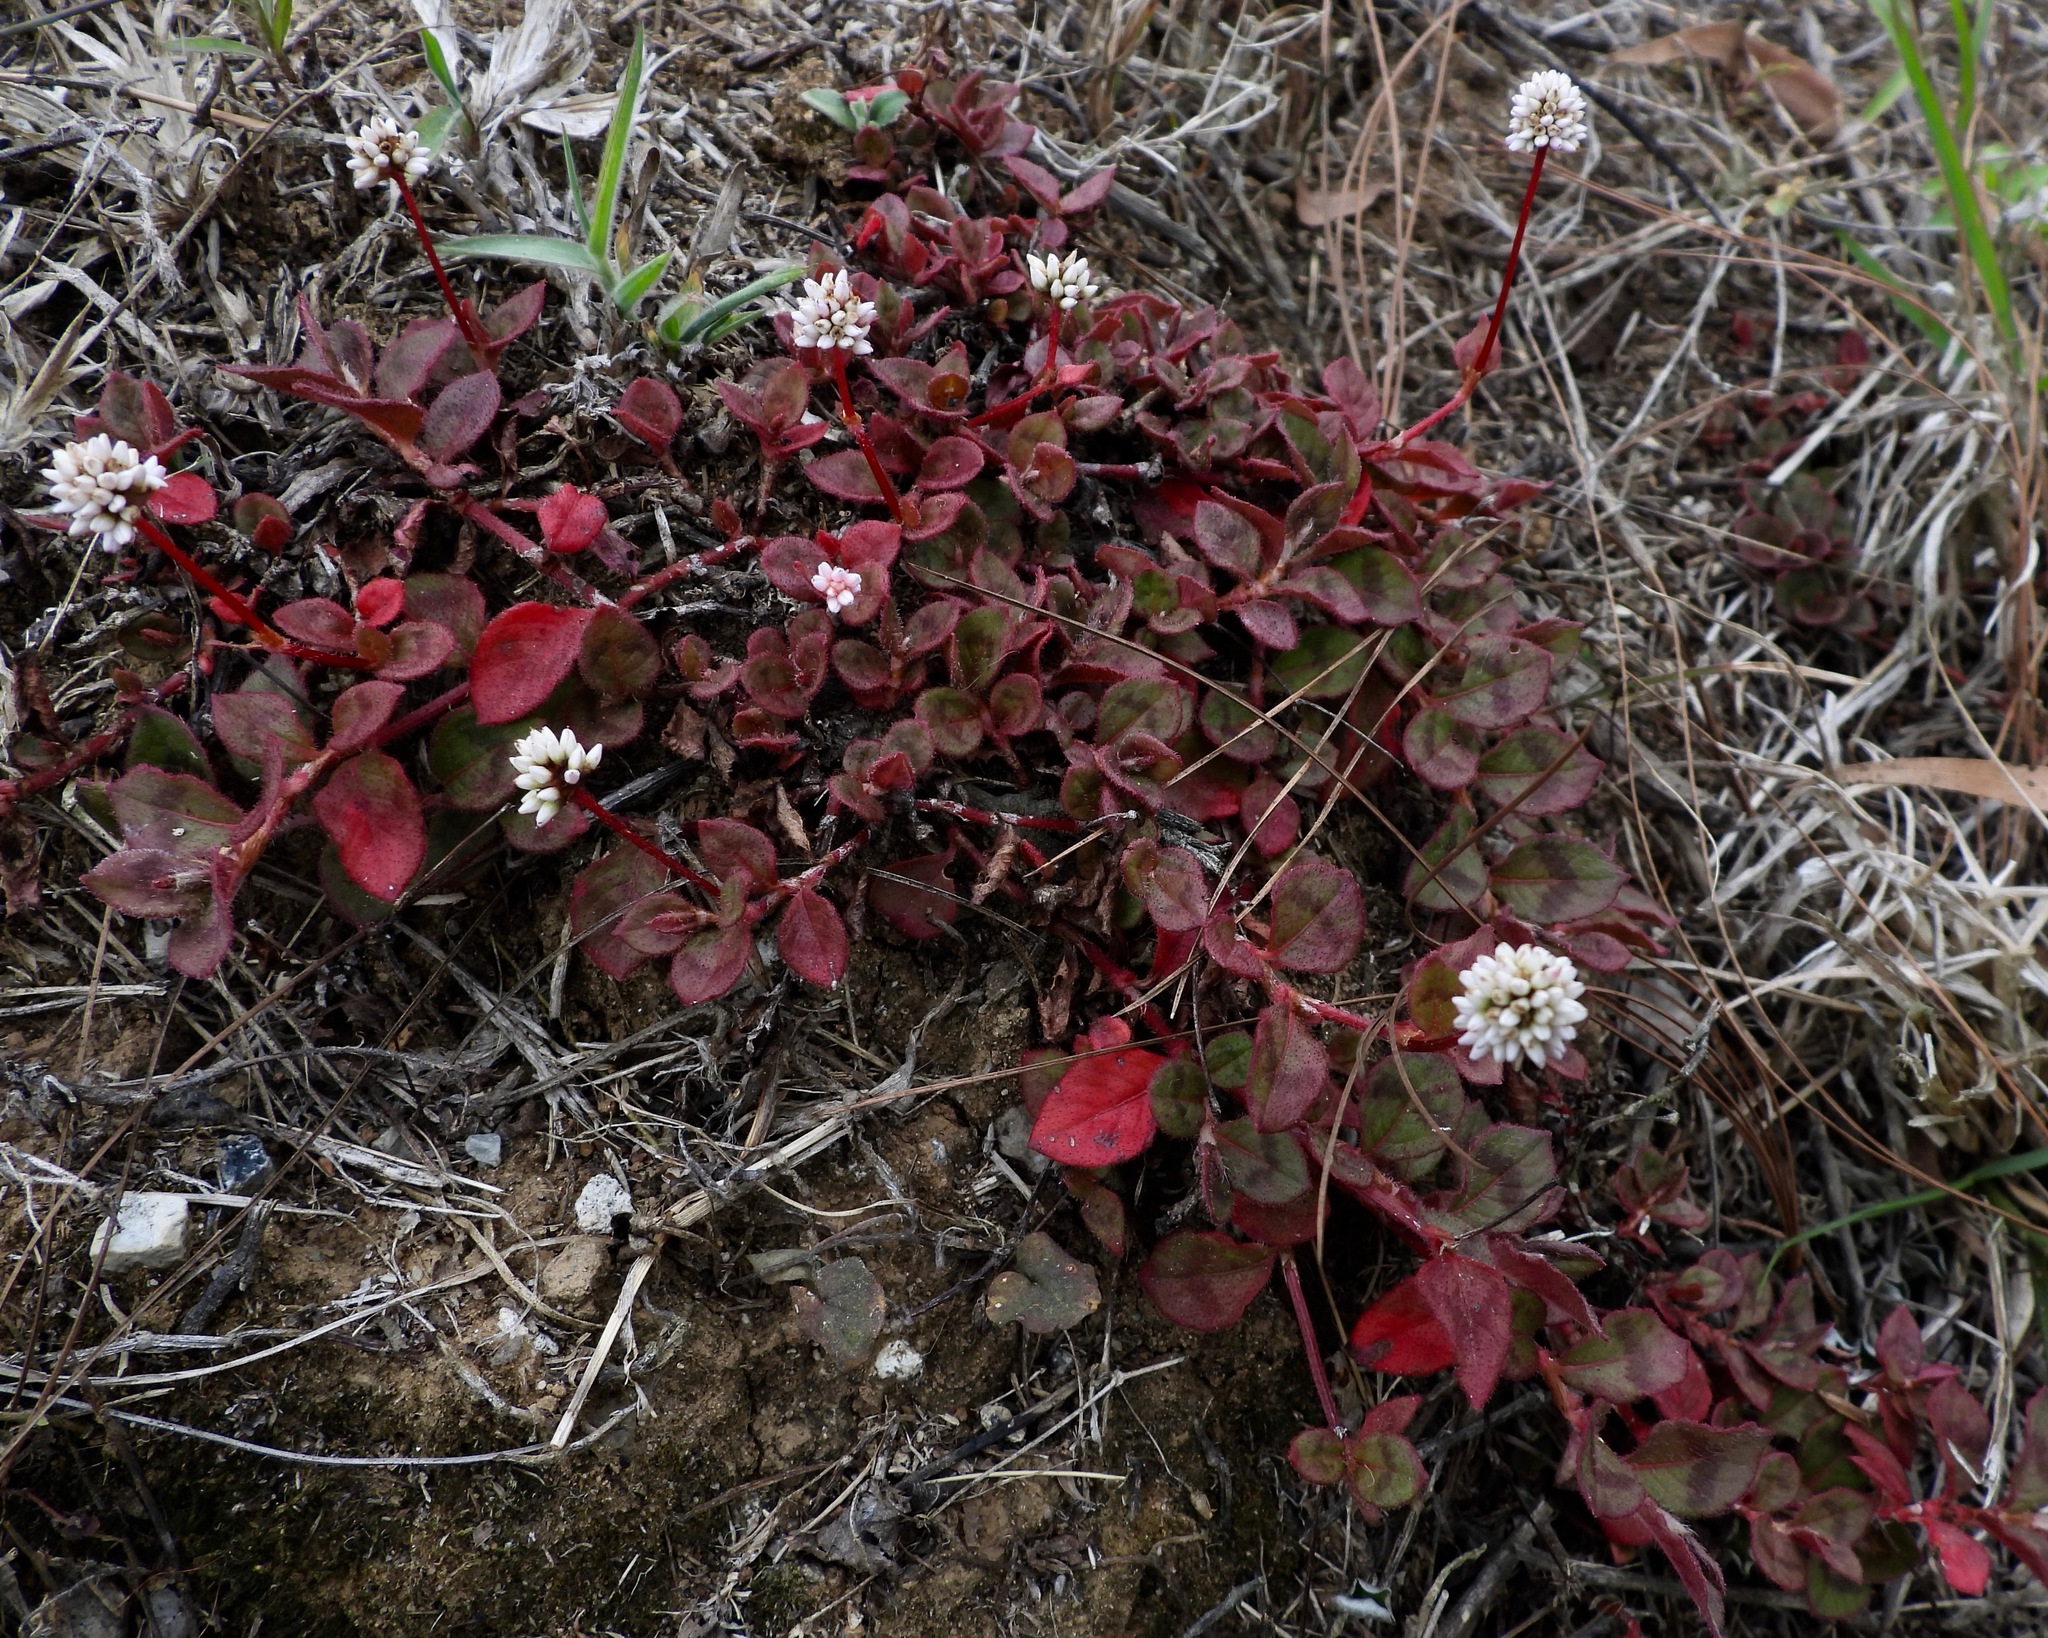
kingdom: Plantae
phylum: Tracheophyta
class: Magnoliopsida
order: Caryophyllales
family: Polygonaceae
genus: Persicaria
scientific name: Persicaria capitata
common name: Pinkhead smartweed
